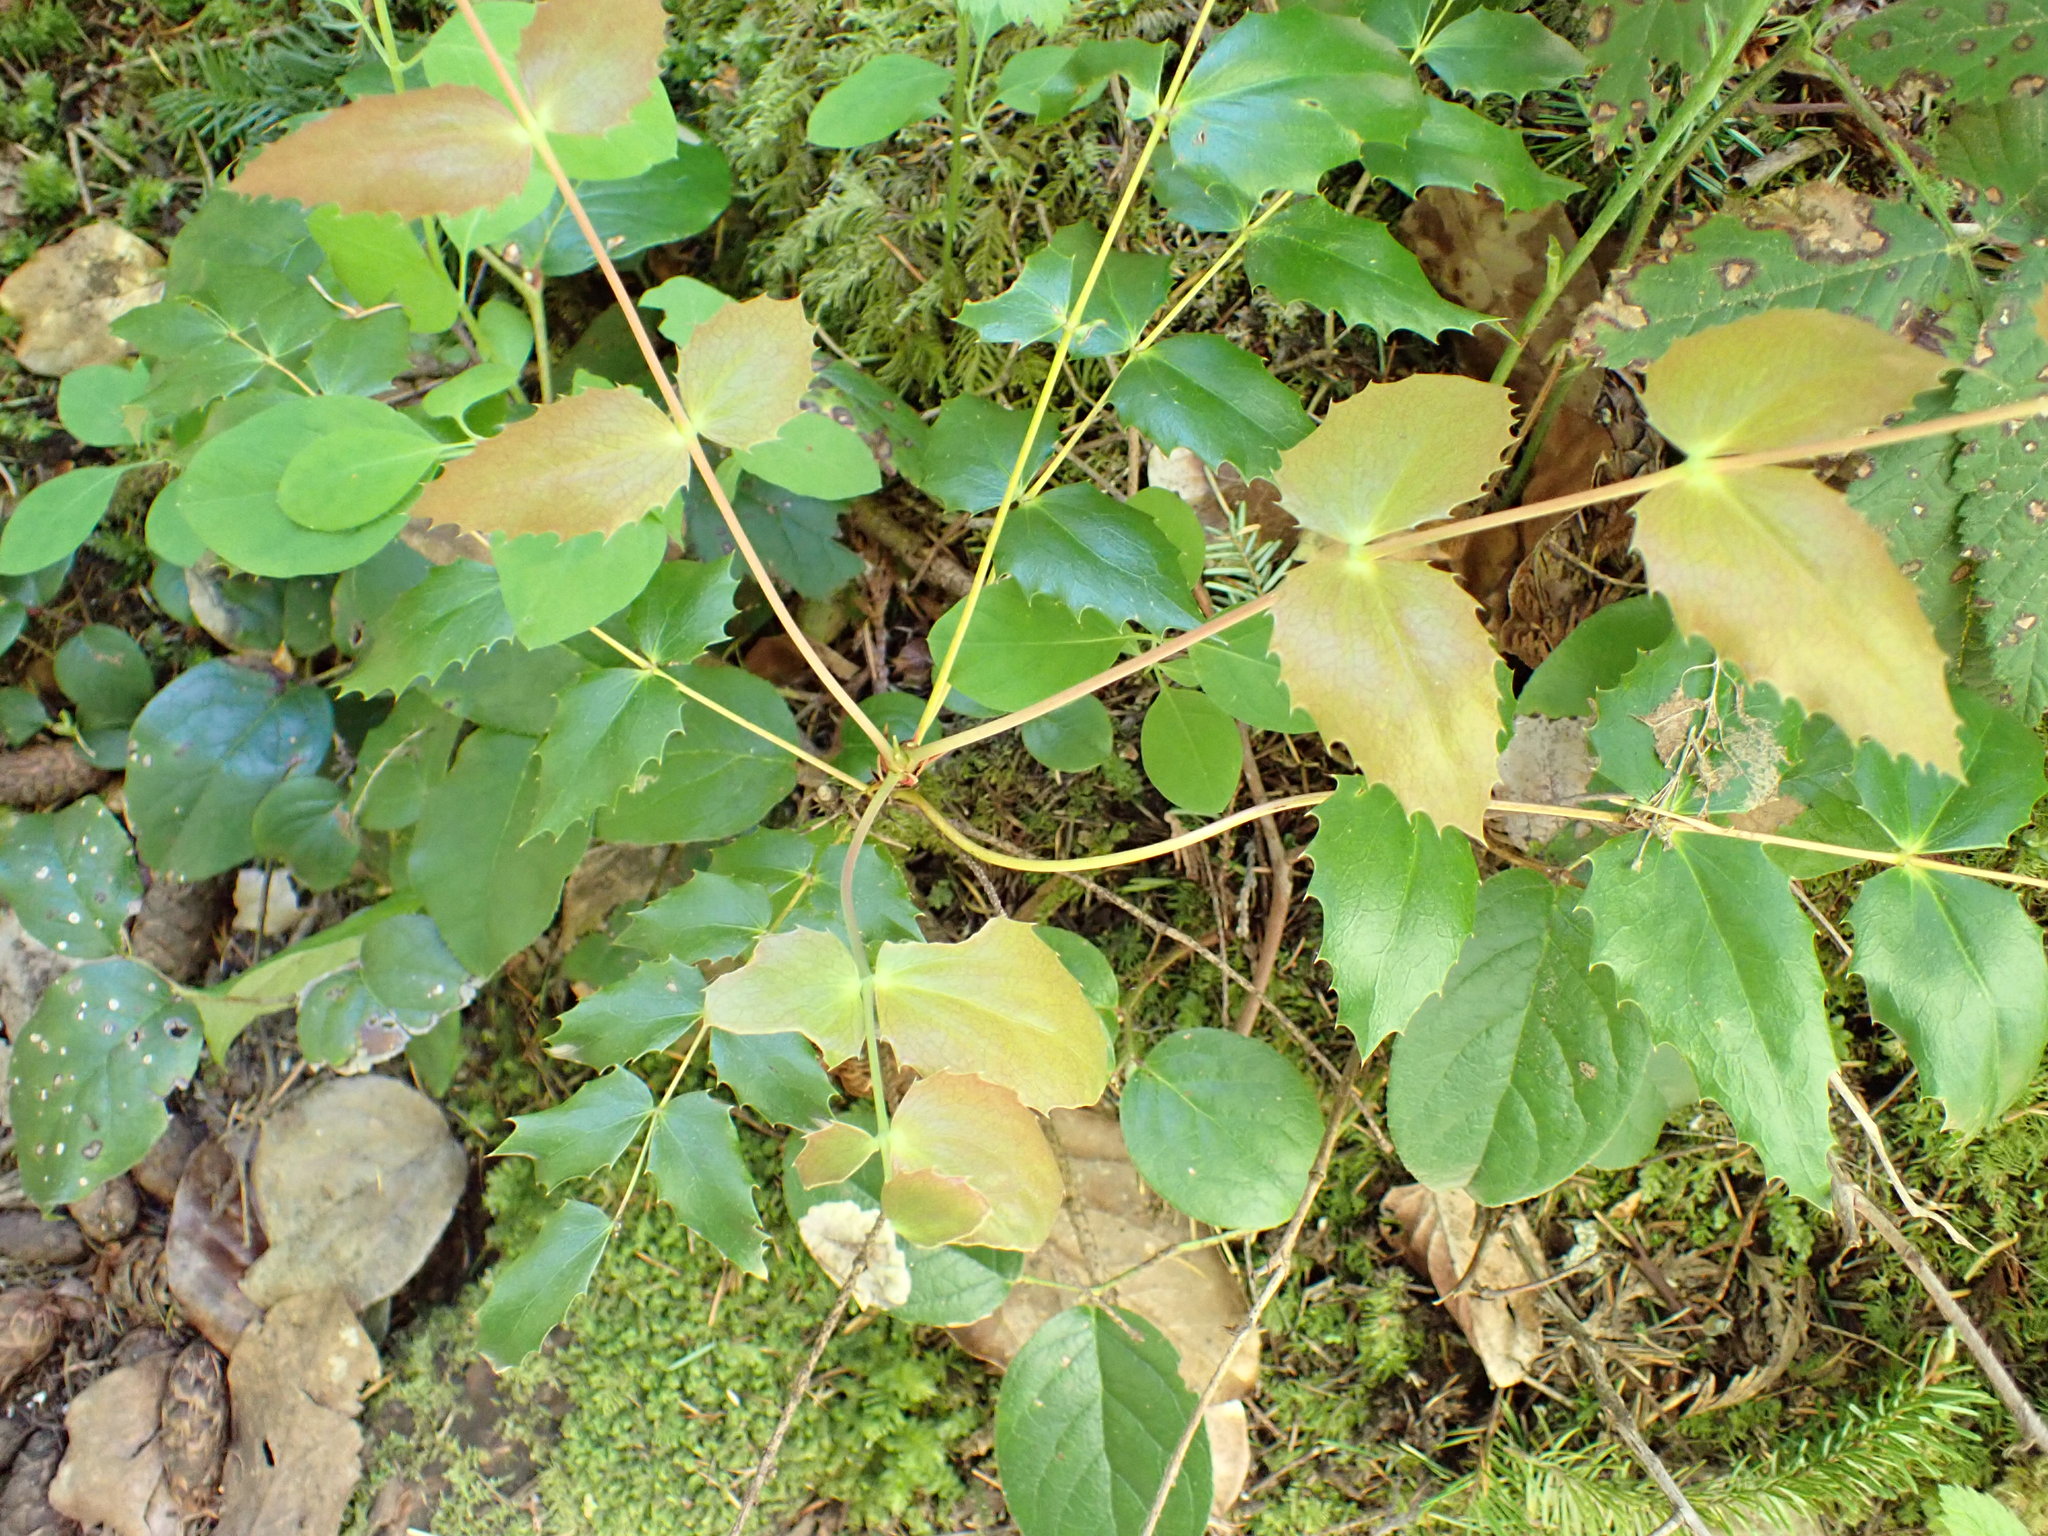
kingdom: Plantae
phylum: Tracheophyta
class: Magnoliopsida
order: Ranunculales
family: Berberidaceae
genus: Mahonia
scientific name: Mahonia nervosa
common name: Cascade oregon-grape
